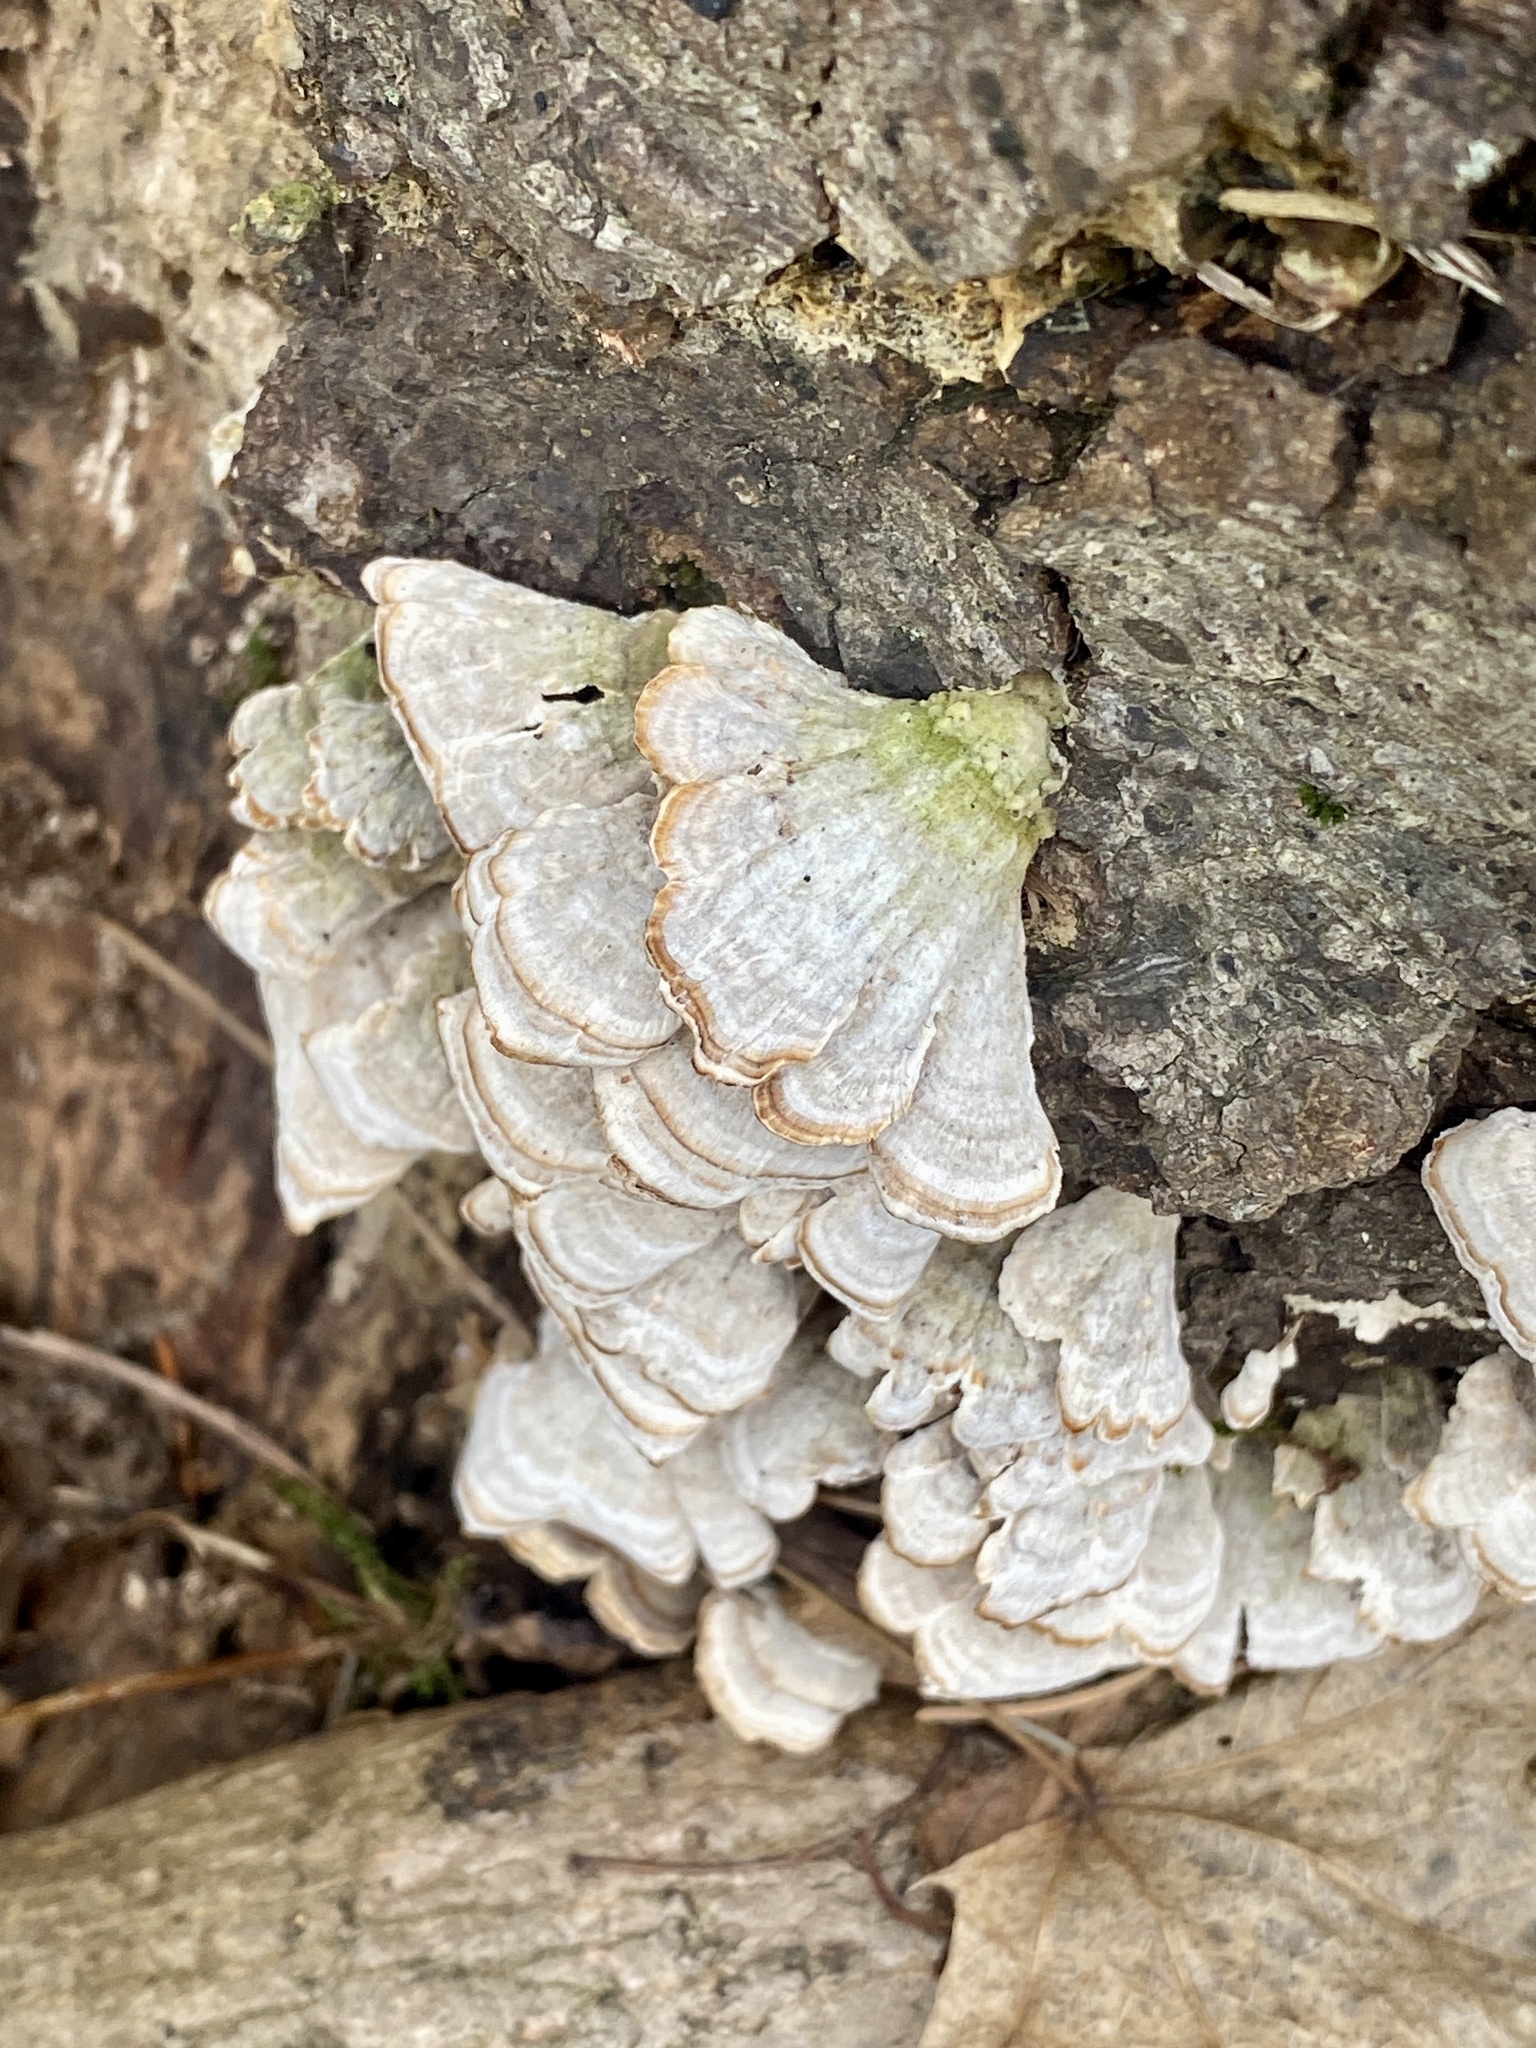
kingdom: Fungi
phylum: Basidiomycota
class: Agaricomycetes
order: Hymenochaetales
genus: Trichaptum
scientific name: Trichaptum biforme
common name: Violet-toothed polypore
